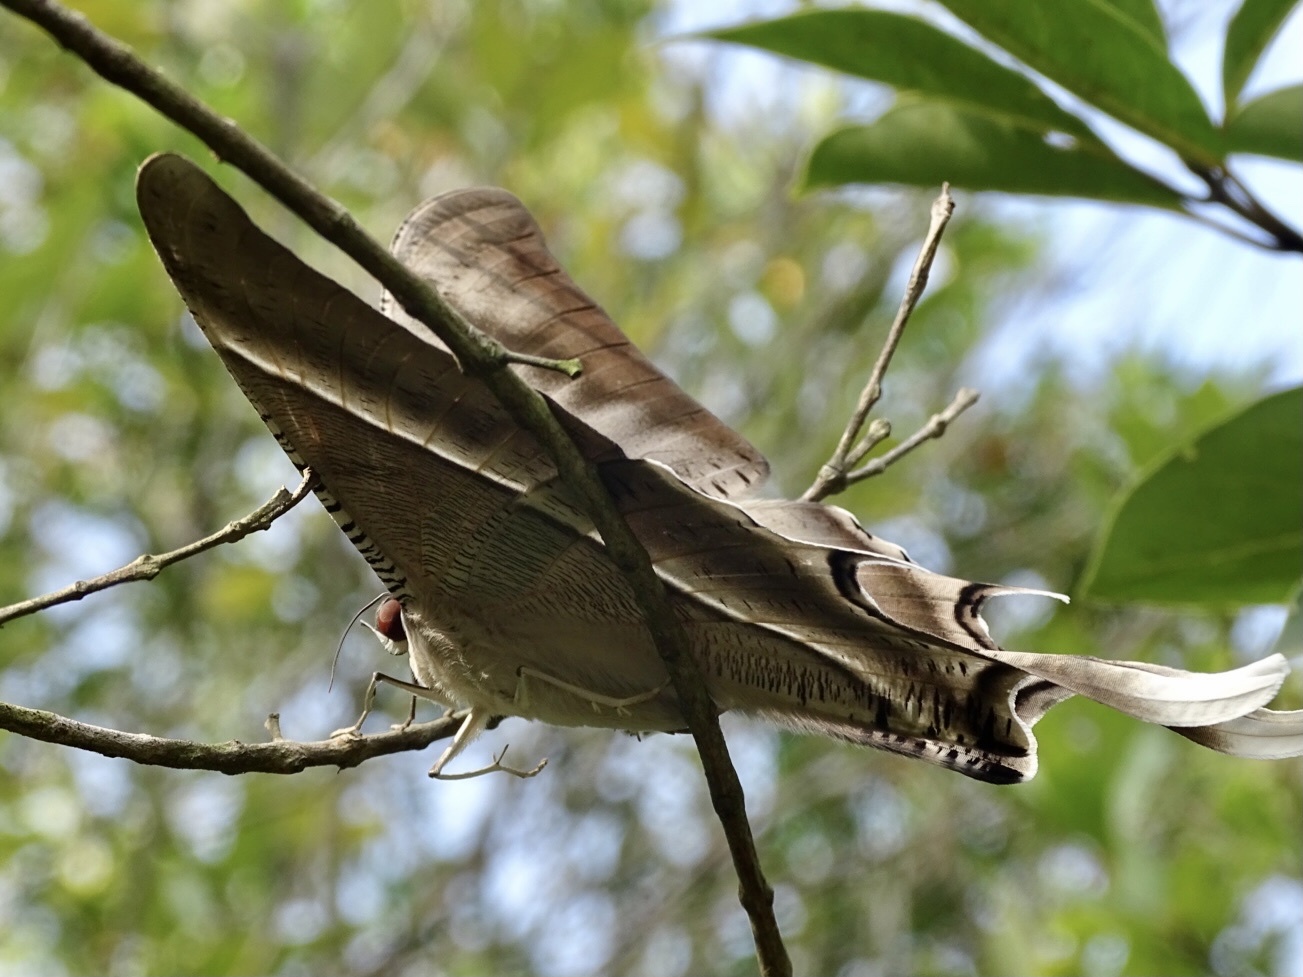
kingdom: Animalia
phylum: Arthropoda
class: Insecta
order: Lepidoptera
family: Uraniidae
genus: Lyssa
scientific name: Lyssa zampa
